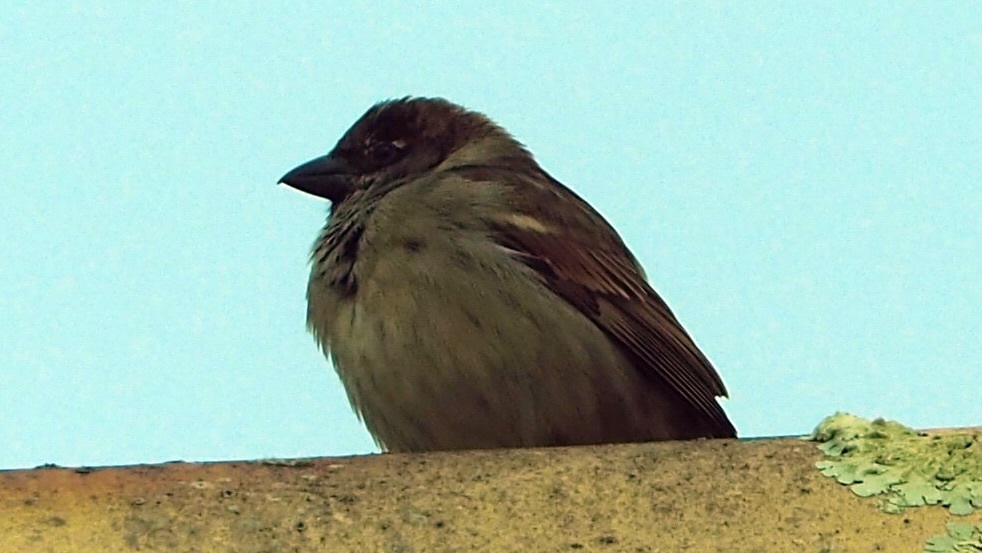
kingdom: Animalia
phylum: Chordata
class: Aves
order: Passeriformes
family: Passeridae
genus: Passer
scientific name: Passer domesticus
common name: House sparrow
